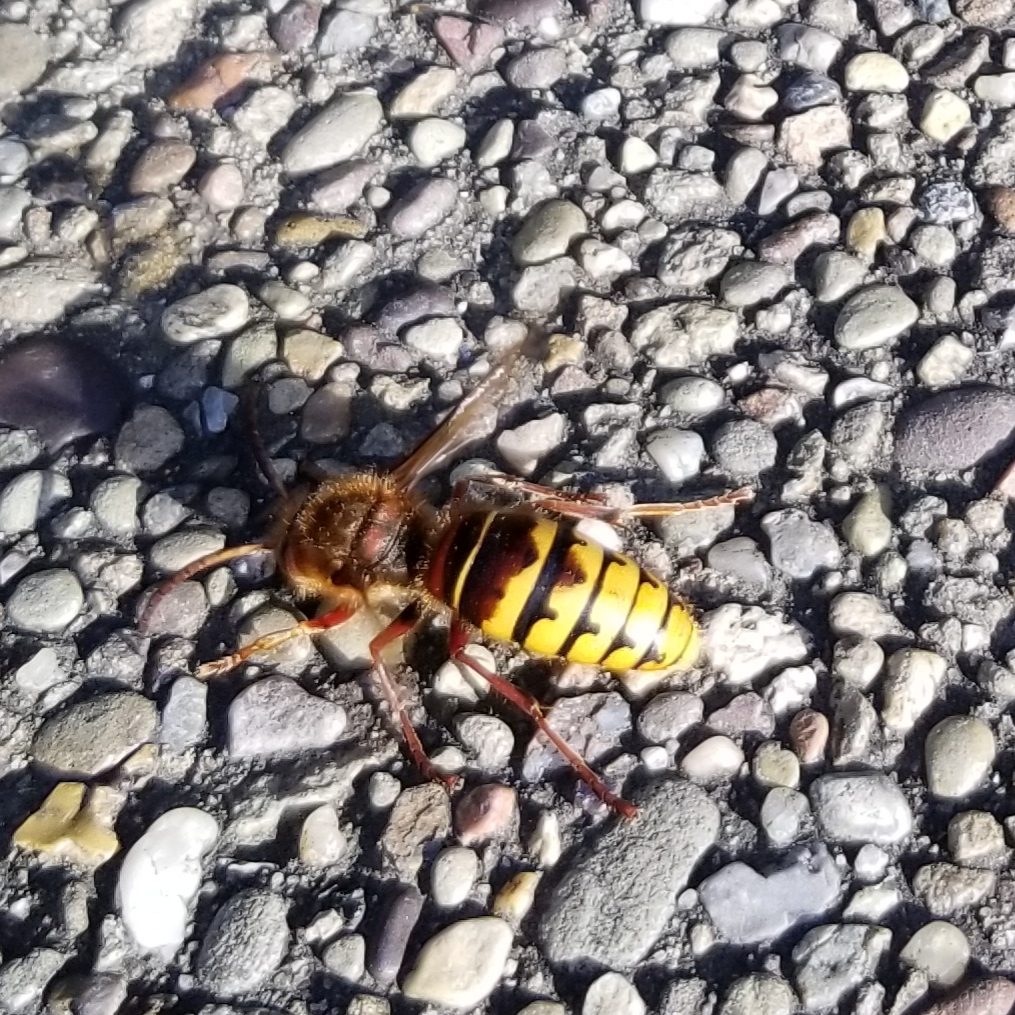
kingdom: Animalia
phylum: Arthropoda
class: Insecta
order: Hymenoptera
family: Vespidae
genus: Vespa
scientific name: Vespa crabro
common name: Hornet
